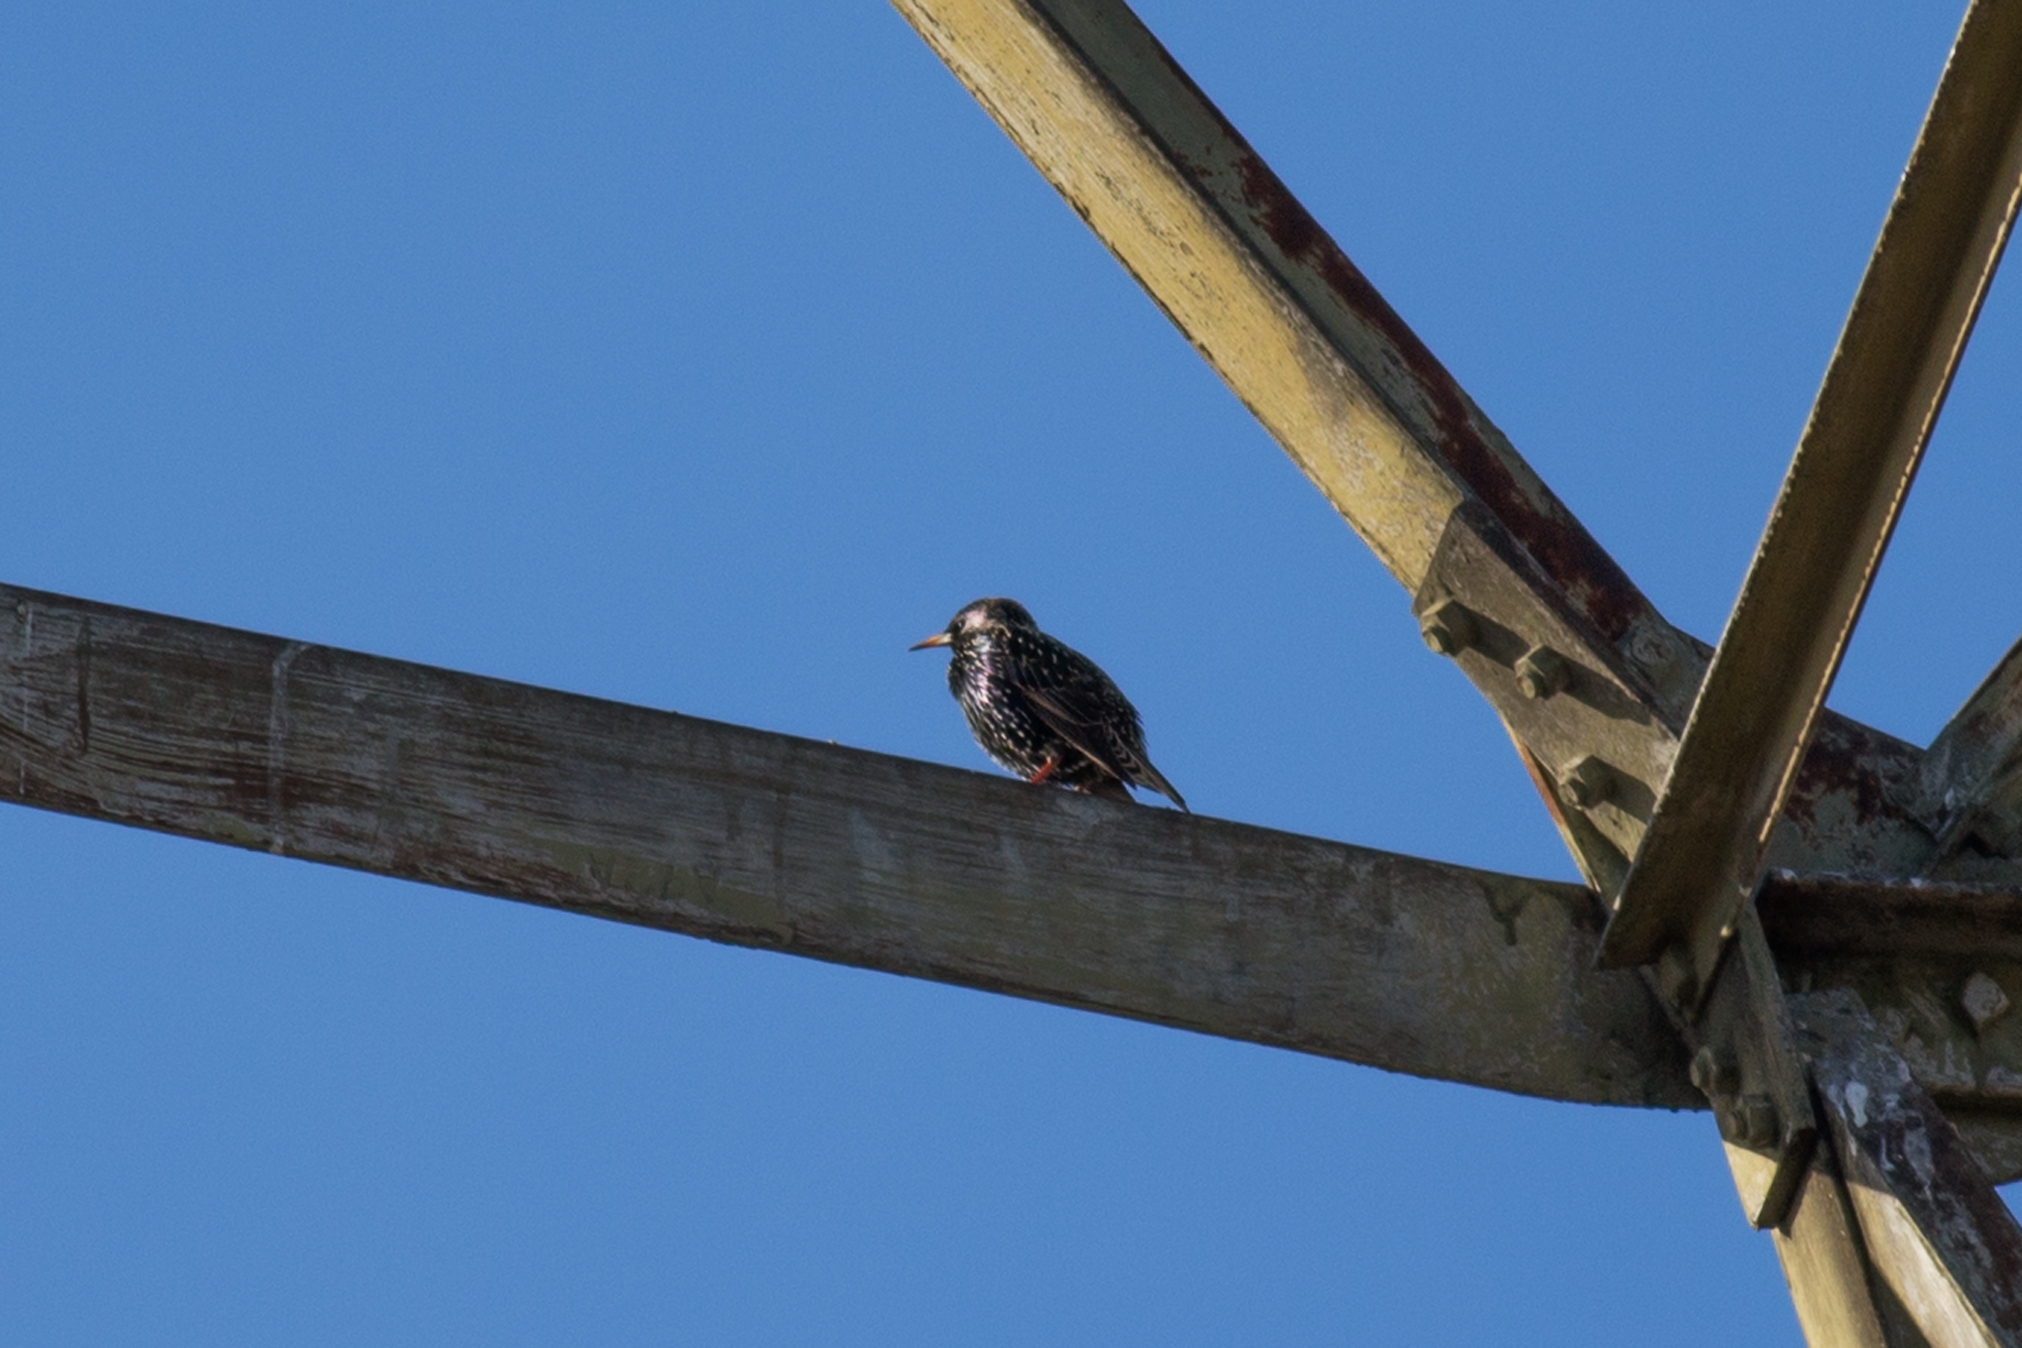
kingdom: Animalia
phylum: Chordata
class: Aves
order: Passeriformes
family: Sturnidae
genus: Sturnus
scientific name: Sturnus vulgaris
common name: Common starling
